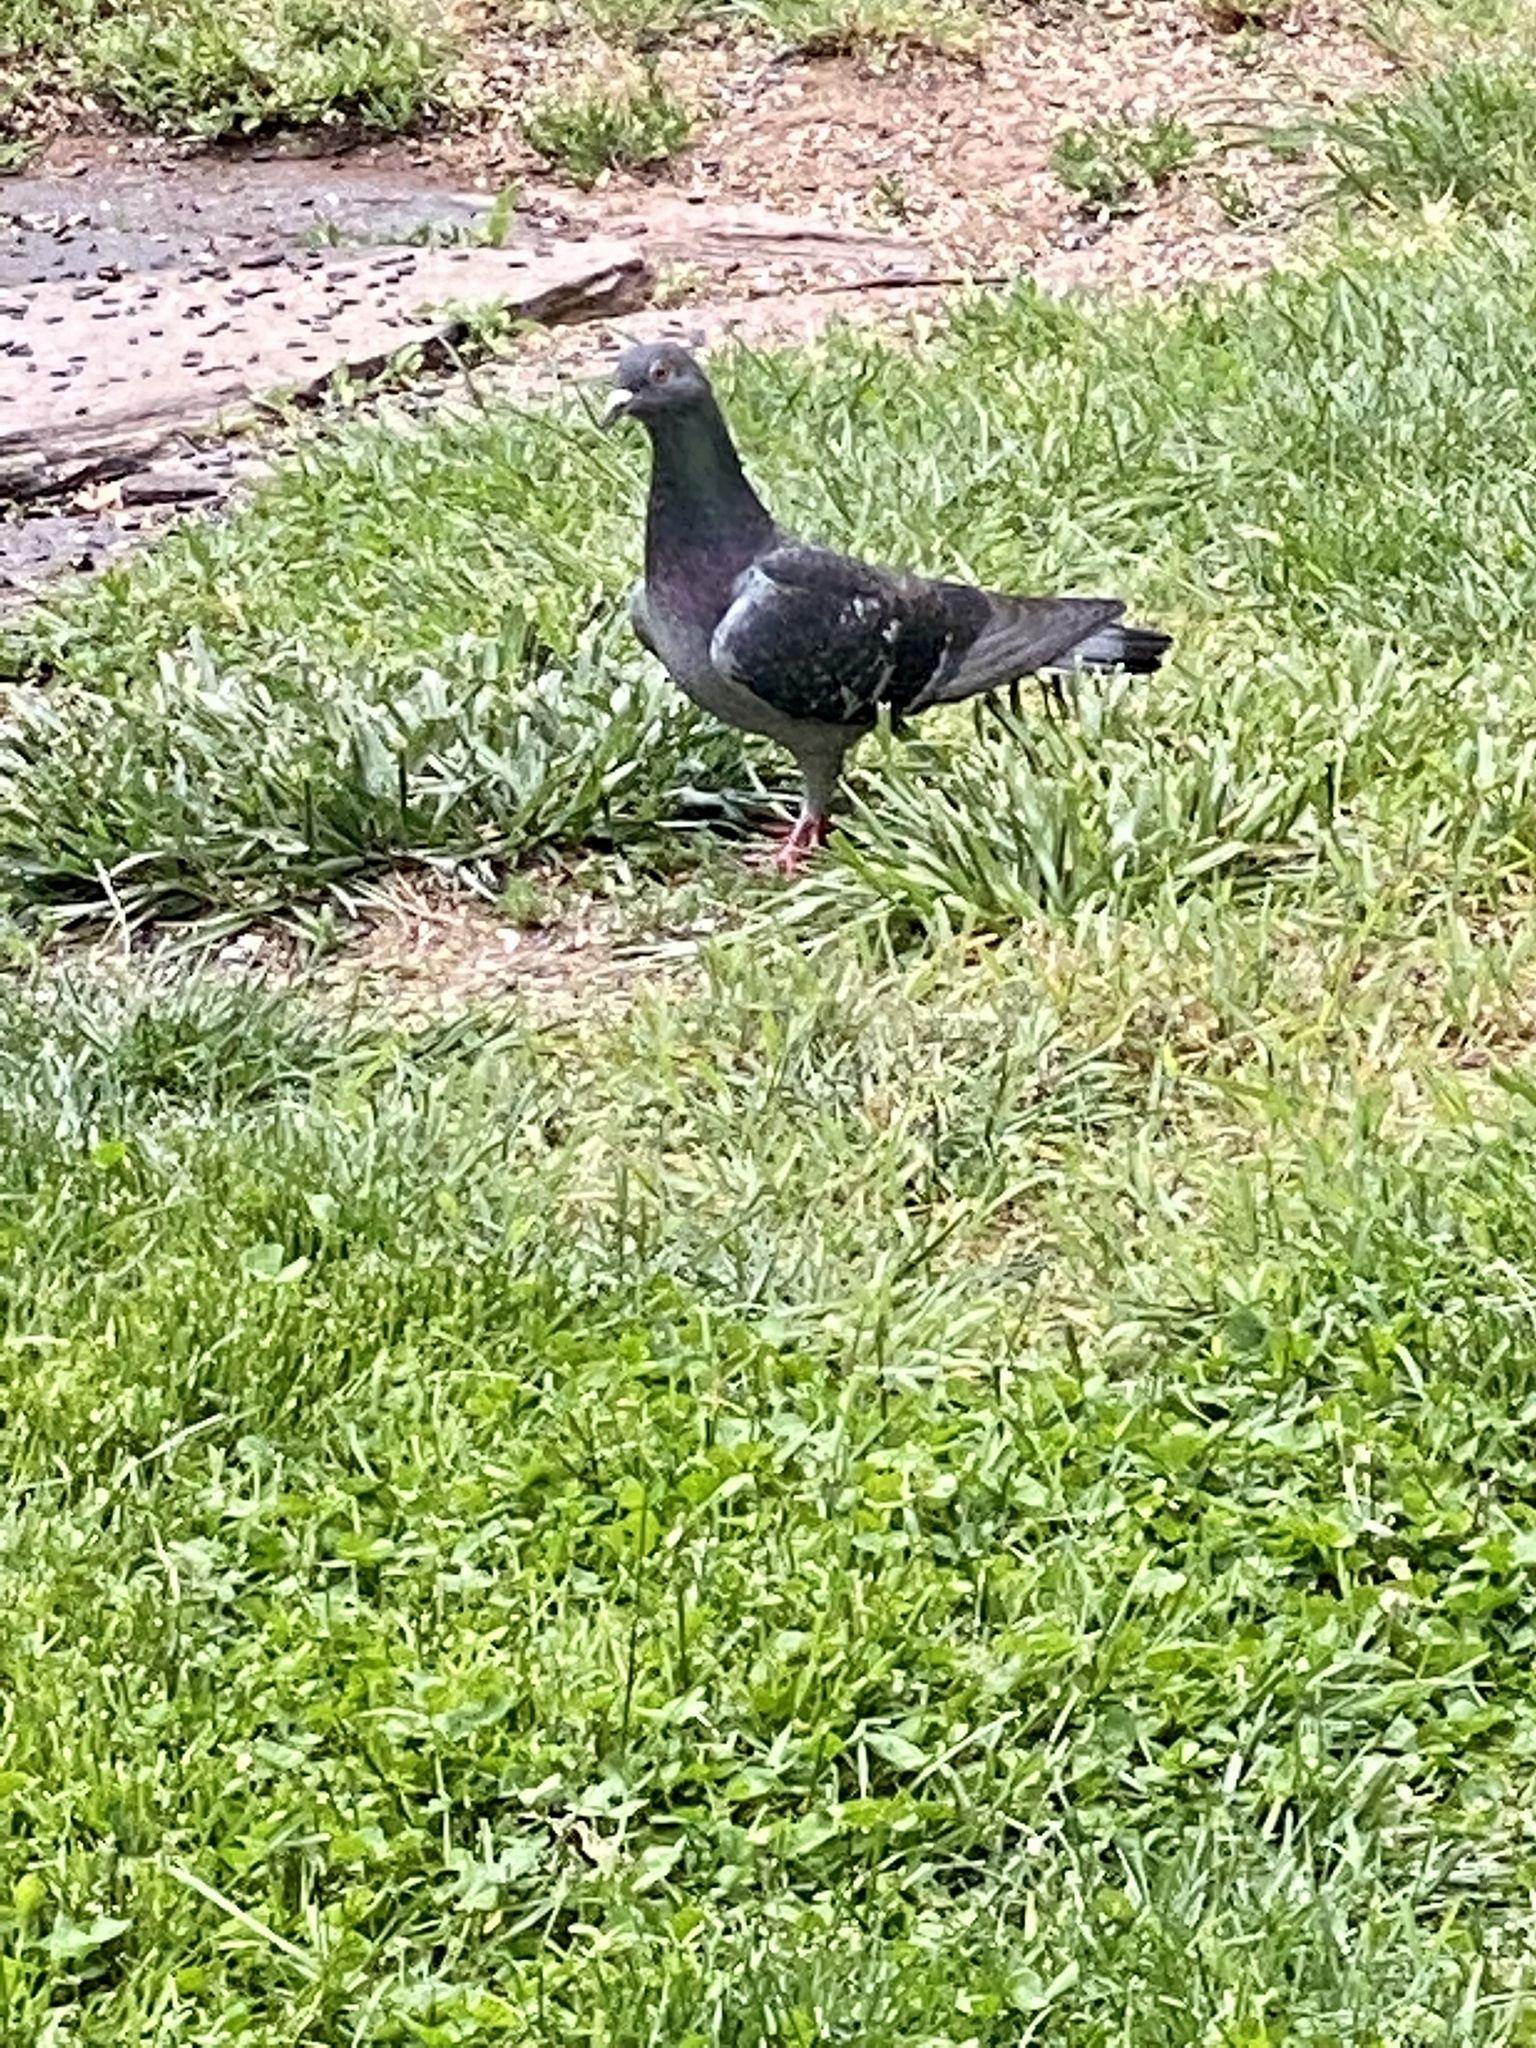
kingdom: Animalia
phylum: Chordata
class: Aves
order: Columbiformes
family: Columbidae
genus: Columba
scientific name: Columba livia
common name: Rock pigeon
